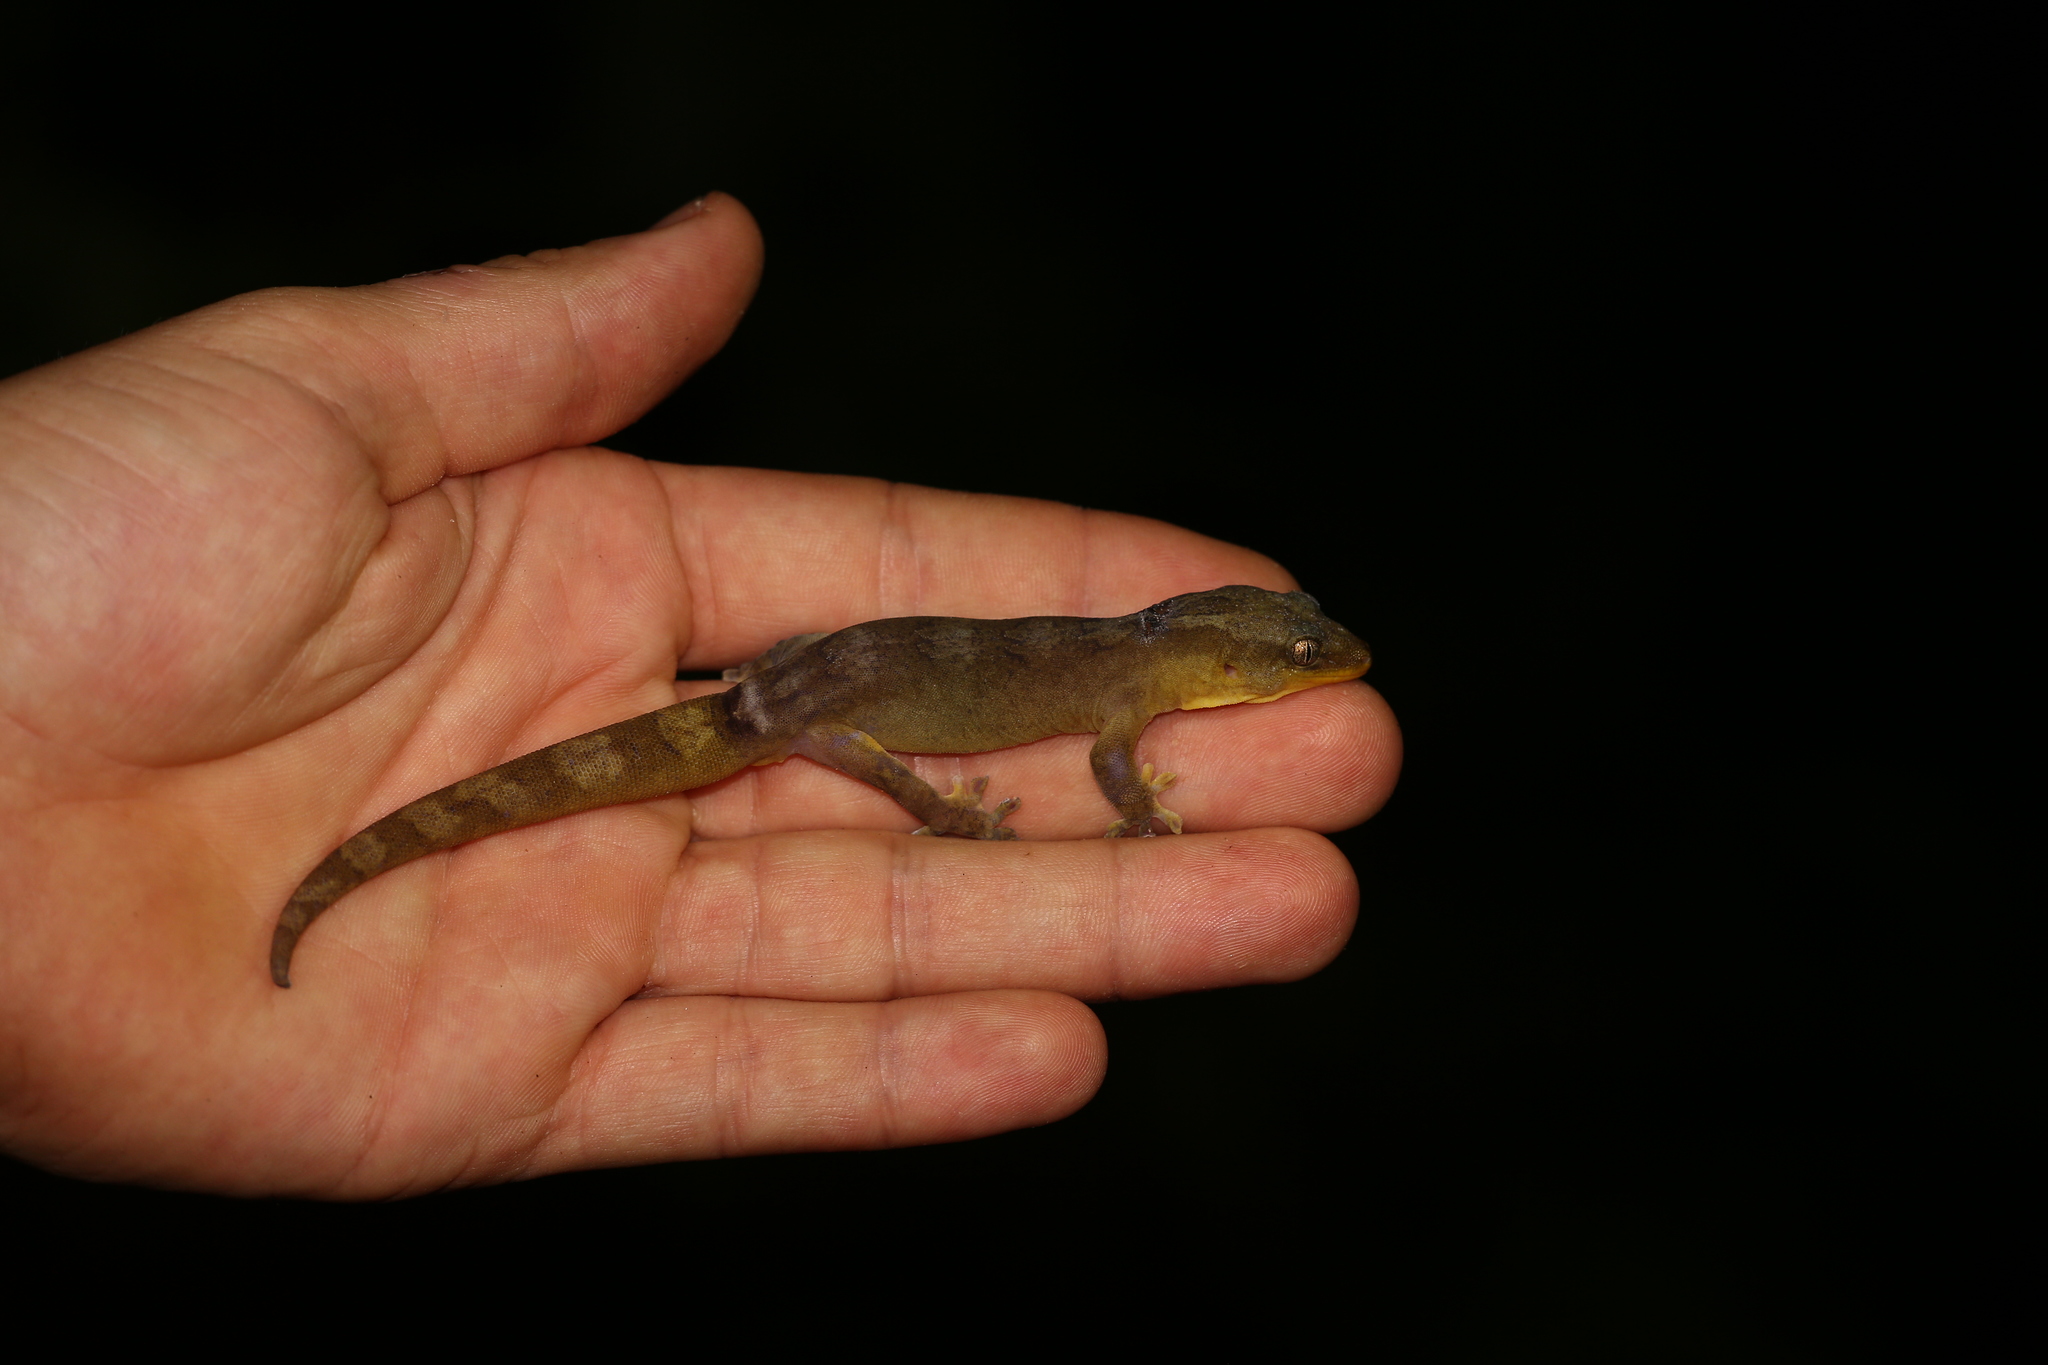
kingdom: Animalia
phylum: Chordata
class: Squamata
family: Diplodactylidae
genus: Bavayia
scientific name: Bavayia crassicollis
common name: Strand bavayia
